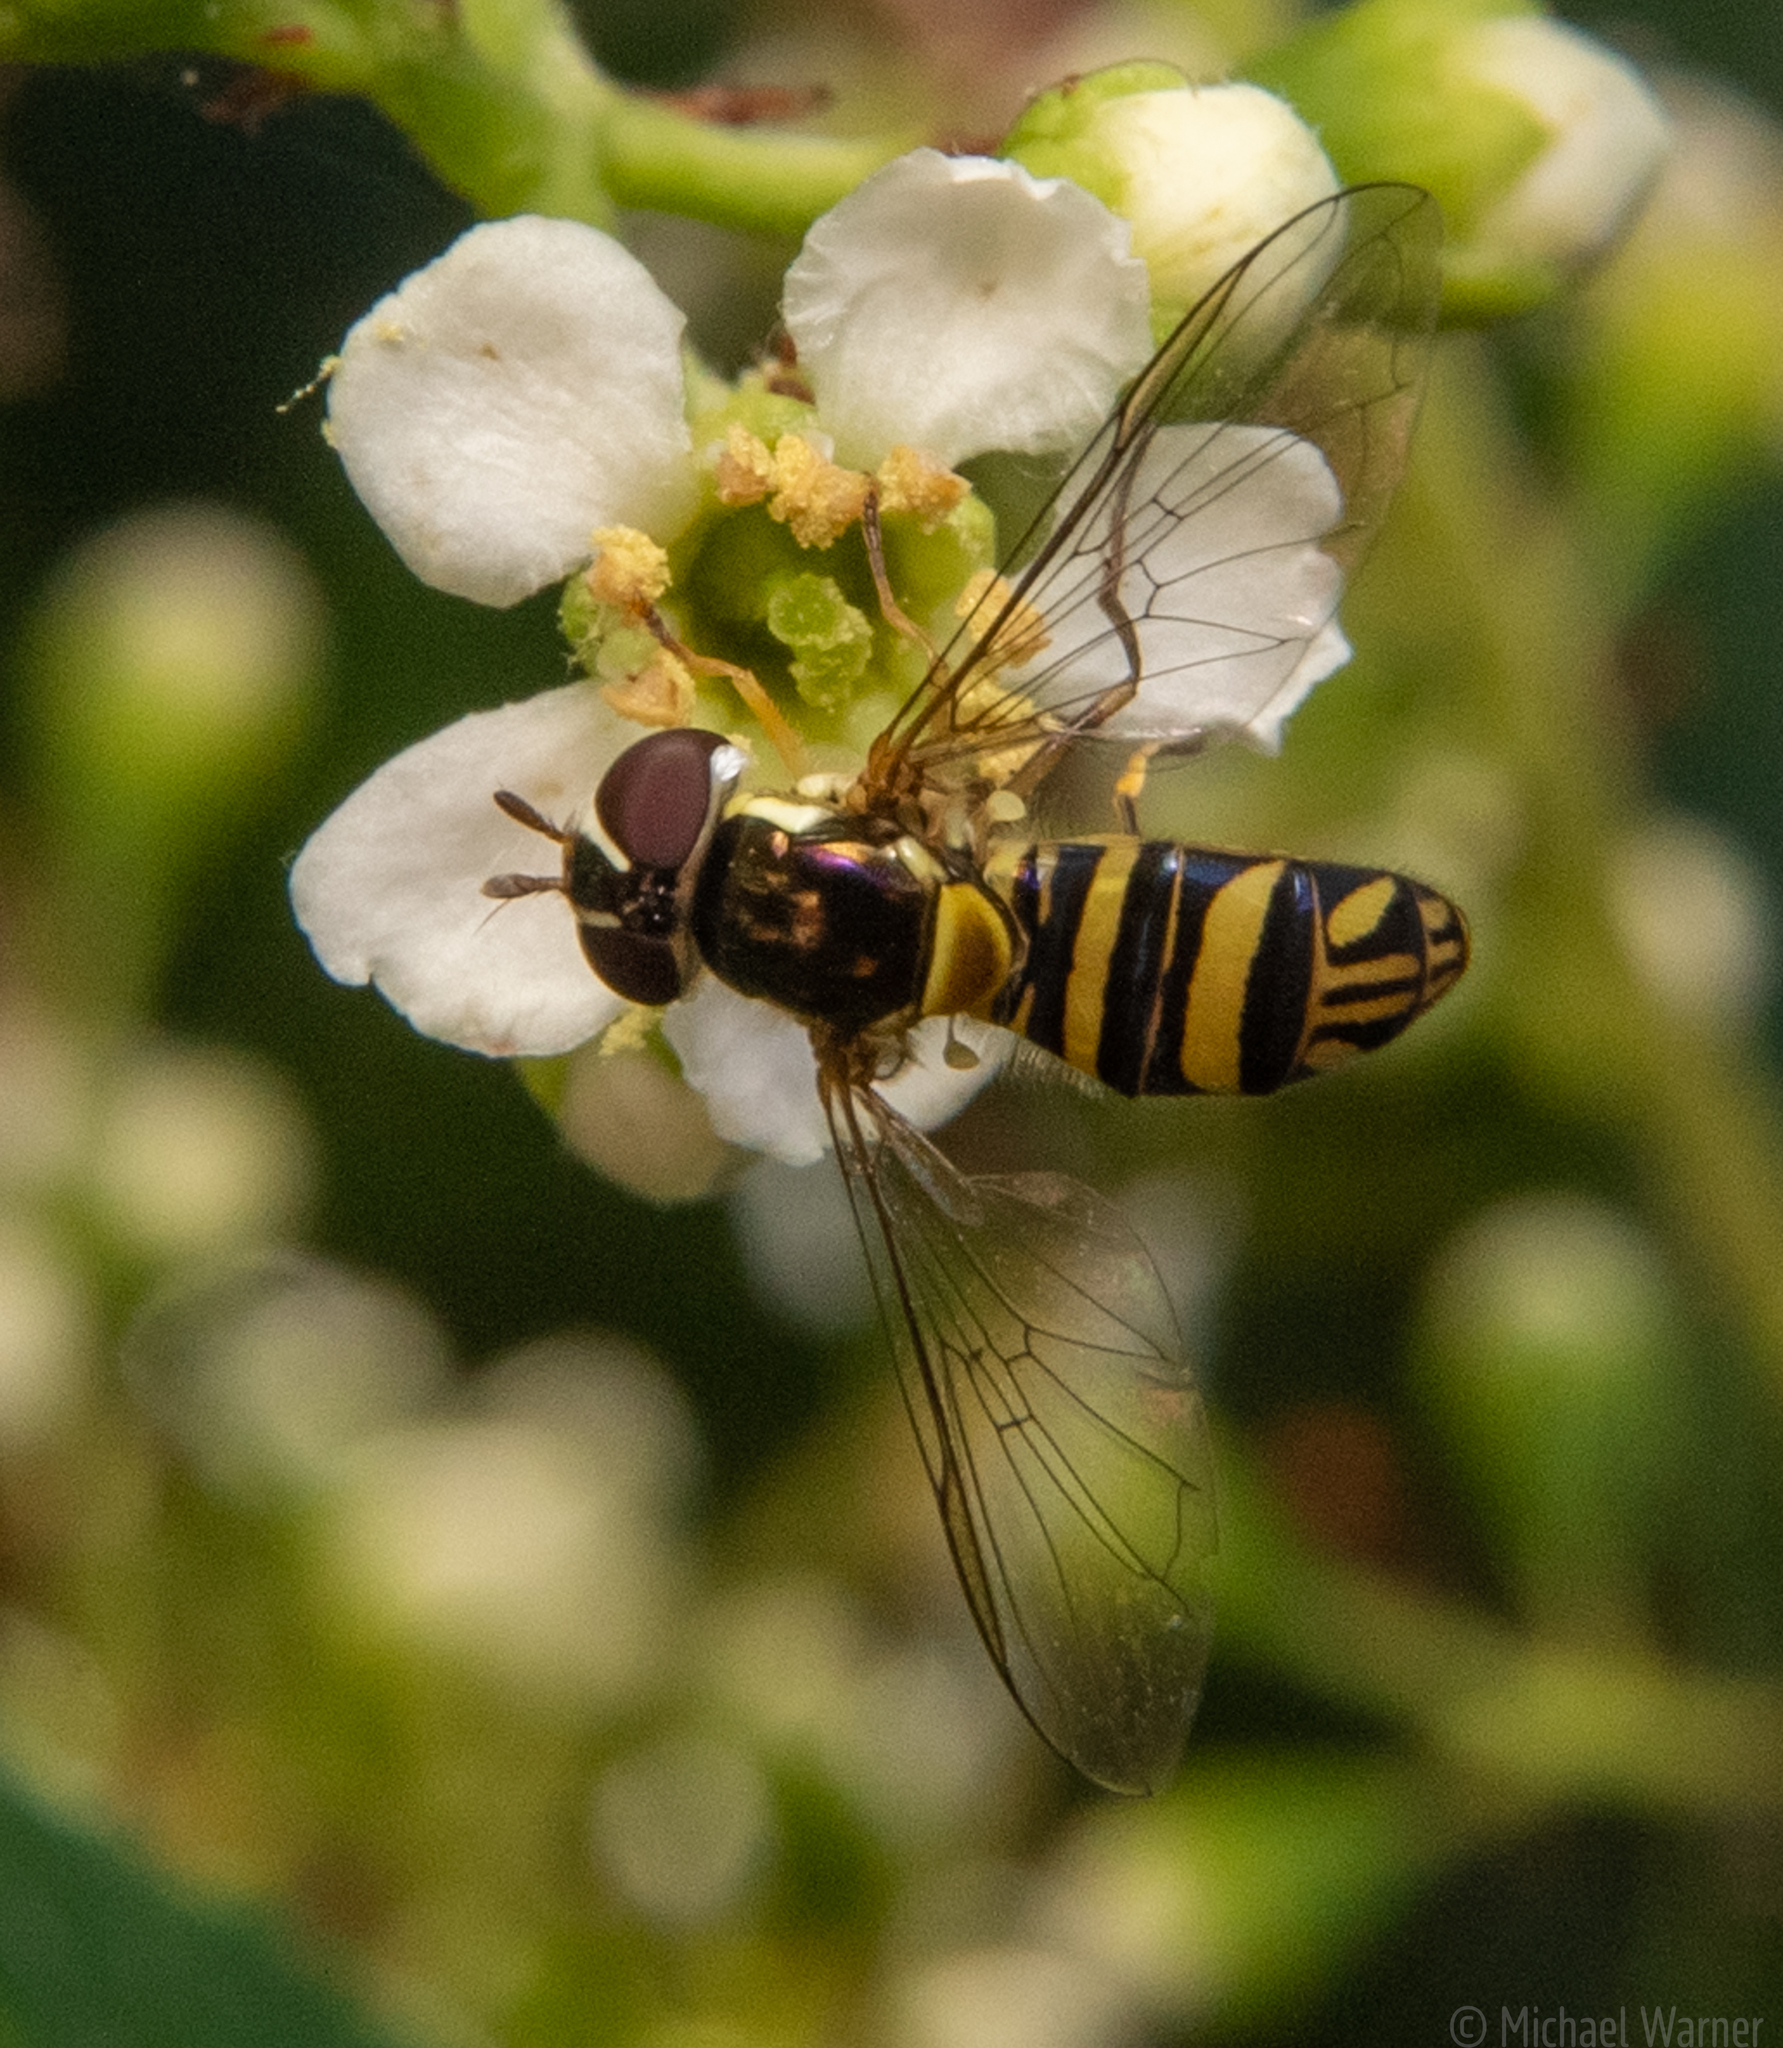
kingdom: Animalia
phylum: Arthropoda
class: Insecta
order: Diptera
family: Syrphidae
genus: Allograpta
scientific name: Allograpta obliqua
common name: Common oblique syrphid
